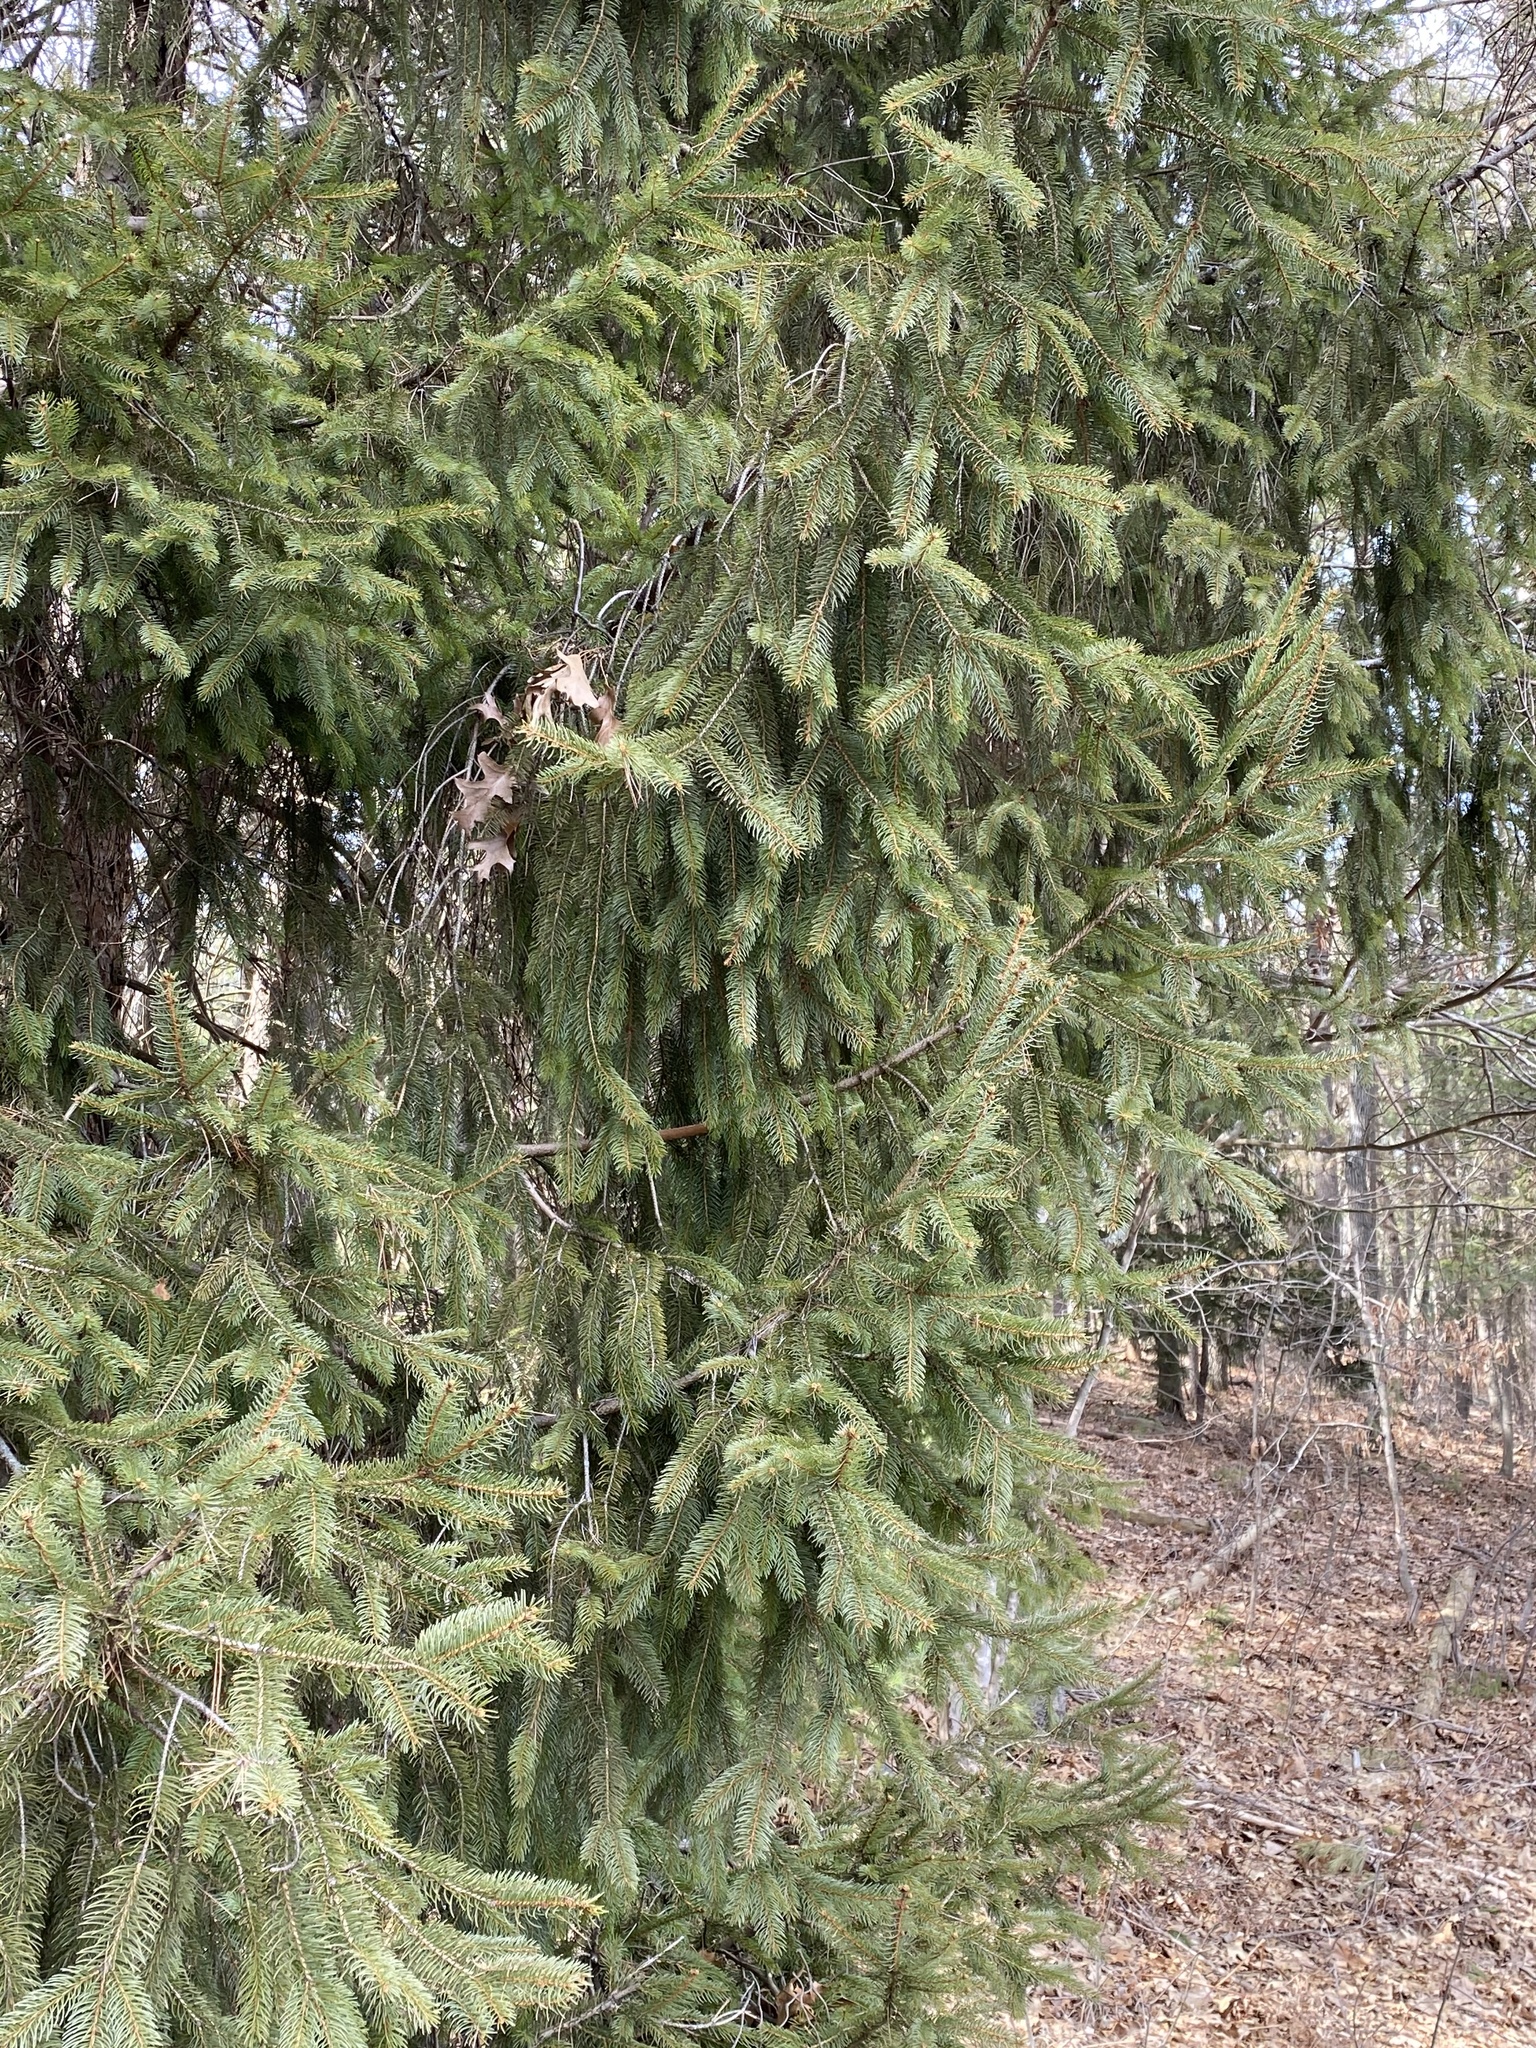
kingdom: Plantae
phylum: Tracheophyta
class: Pinopsida
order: Pinales
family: Pinaceae
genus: Picea
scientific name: Picea abies
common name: Norway spruce
